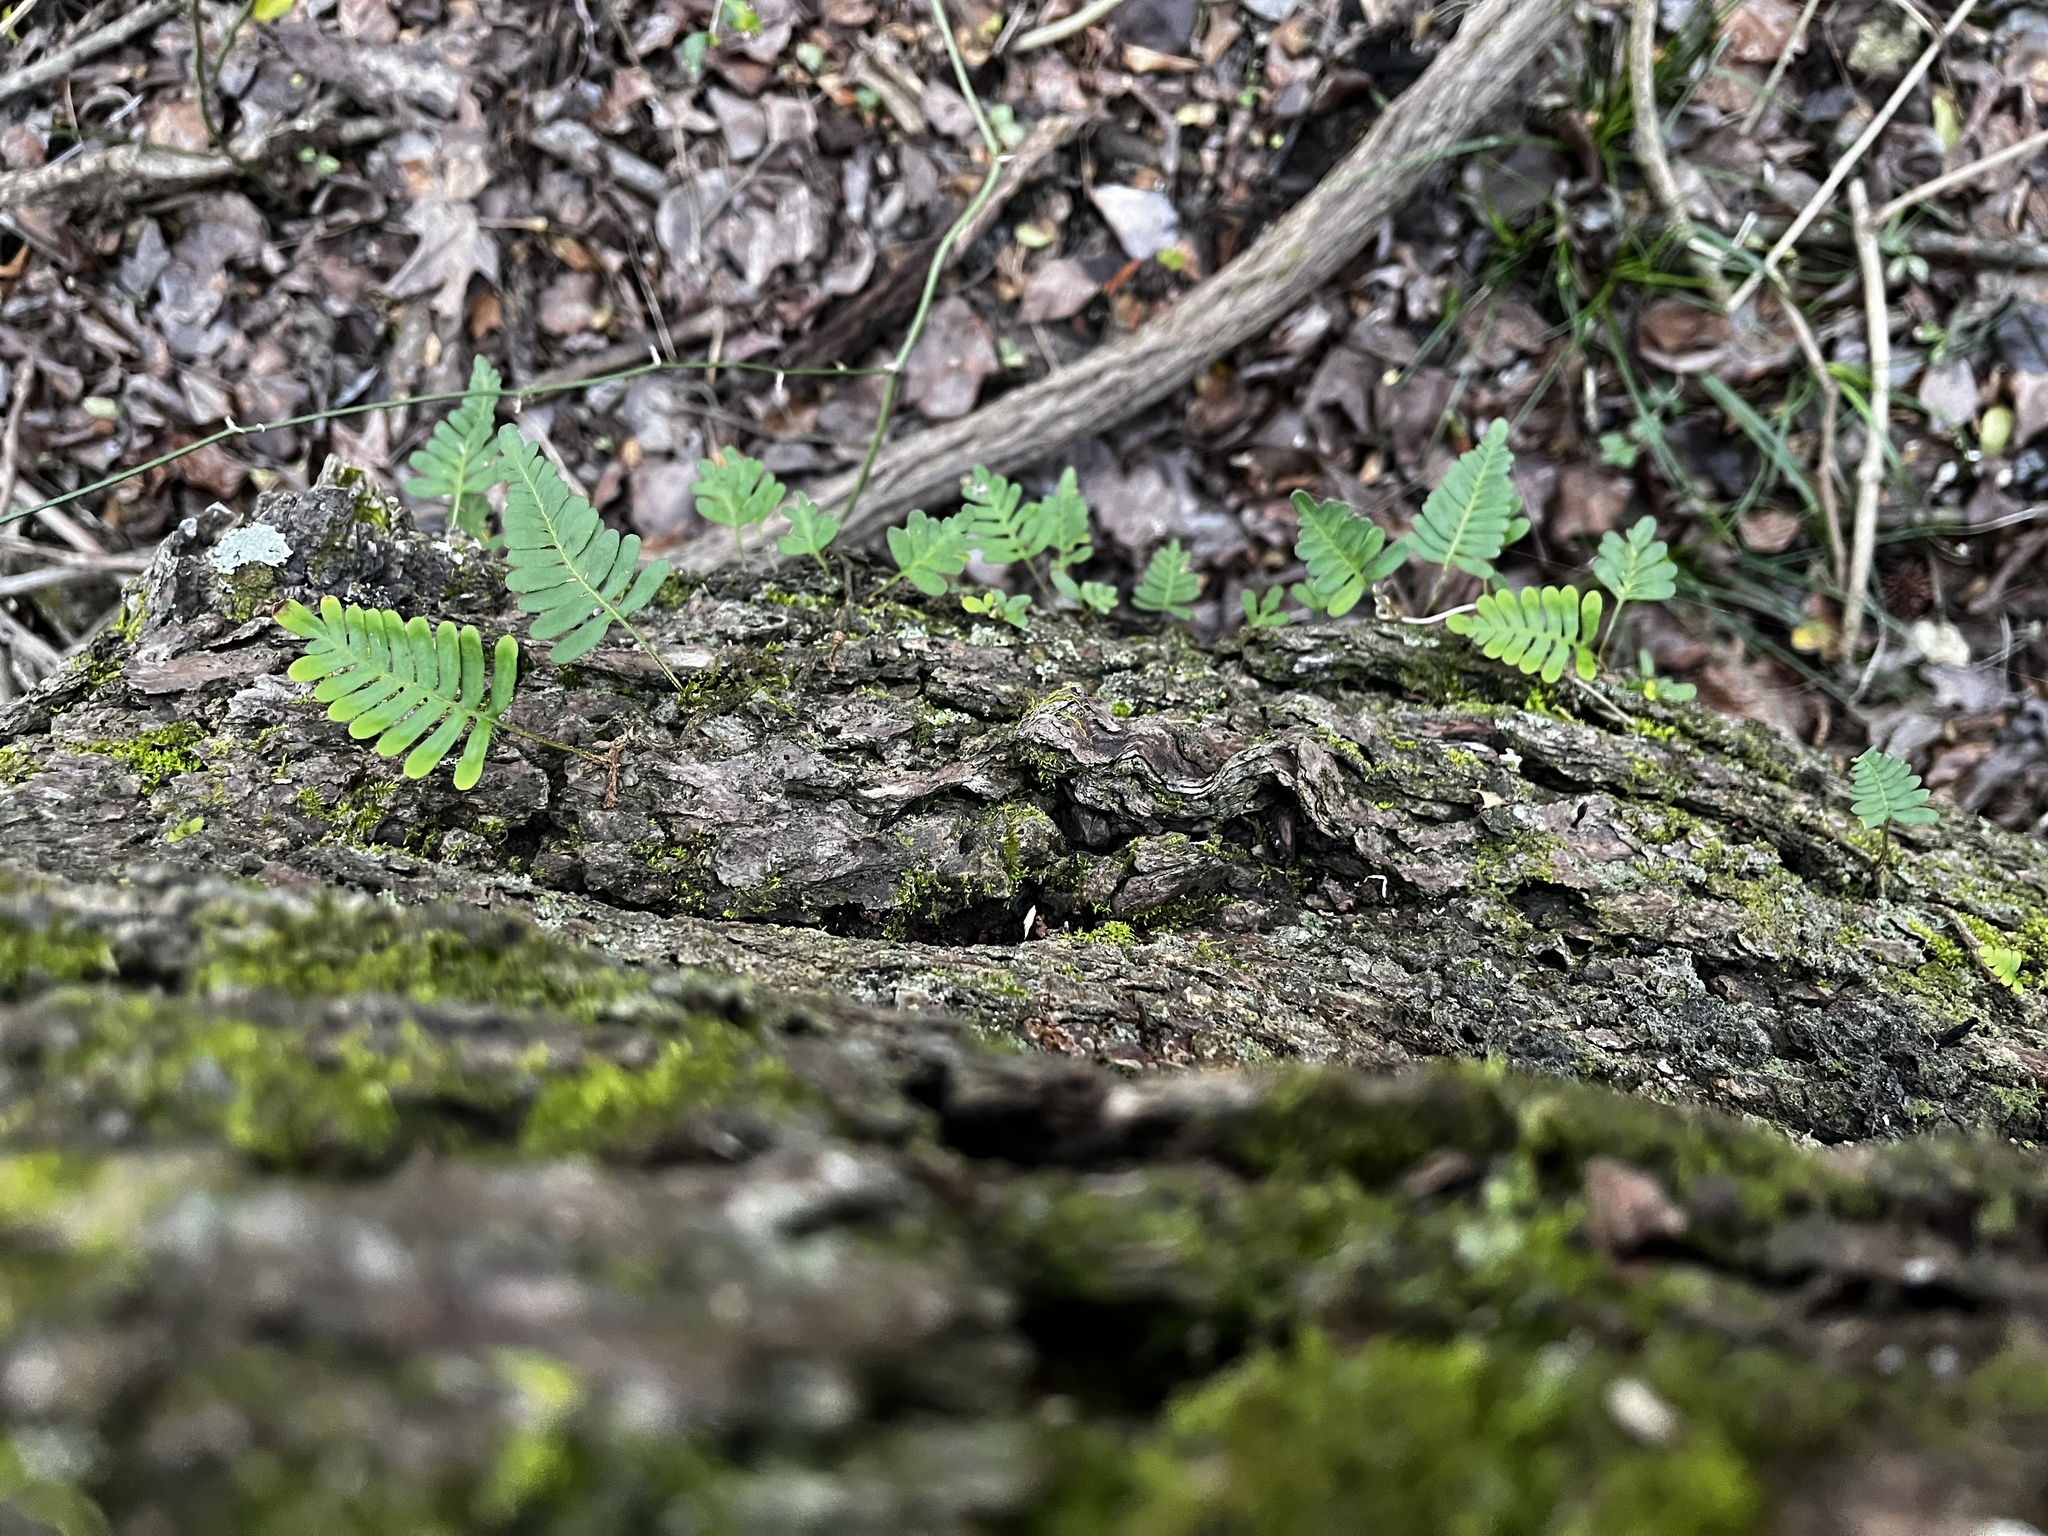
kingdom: Plantae
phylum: Tracheophyta
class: Polypodiopsida
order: Polypodiales
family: Polypodiaceae
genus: Pleopeltis
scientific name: Pleopeltis michauxiana
